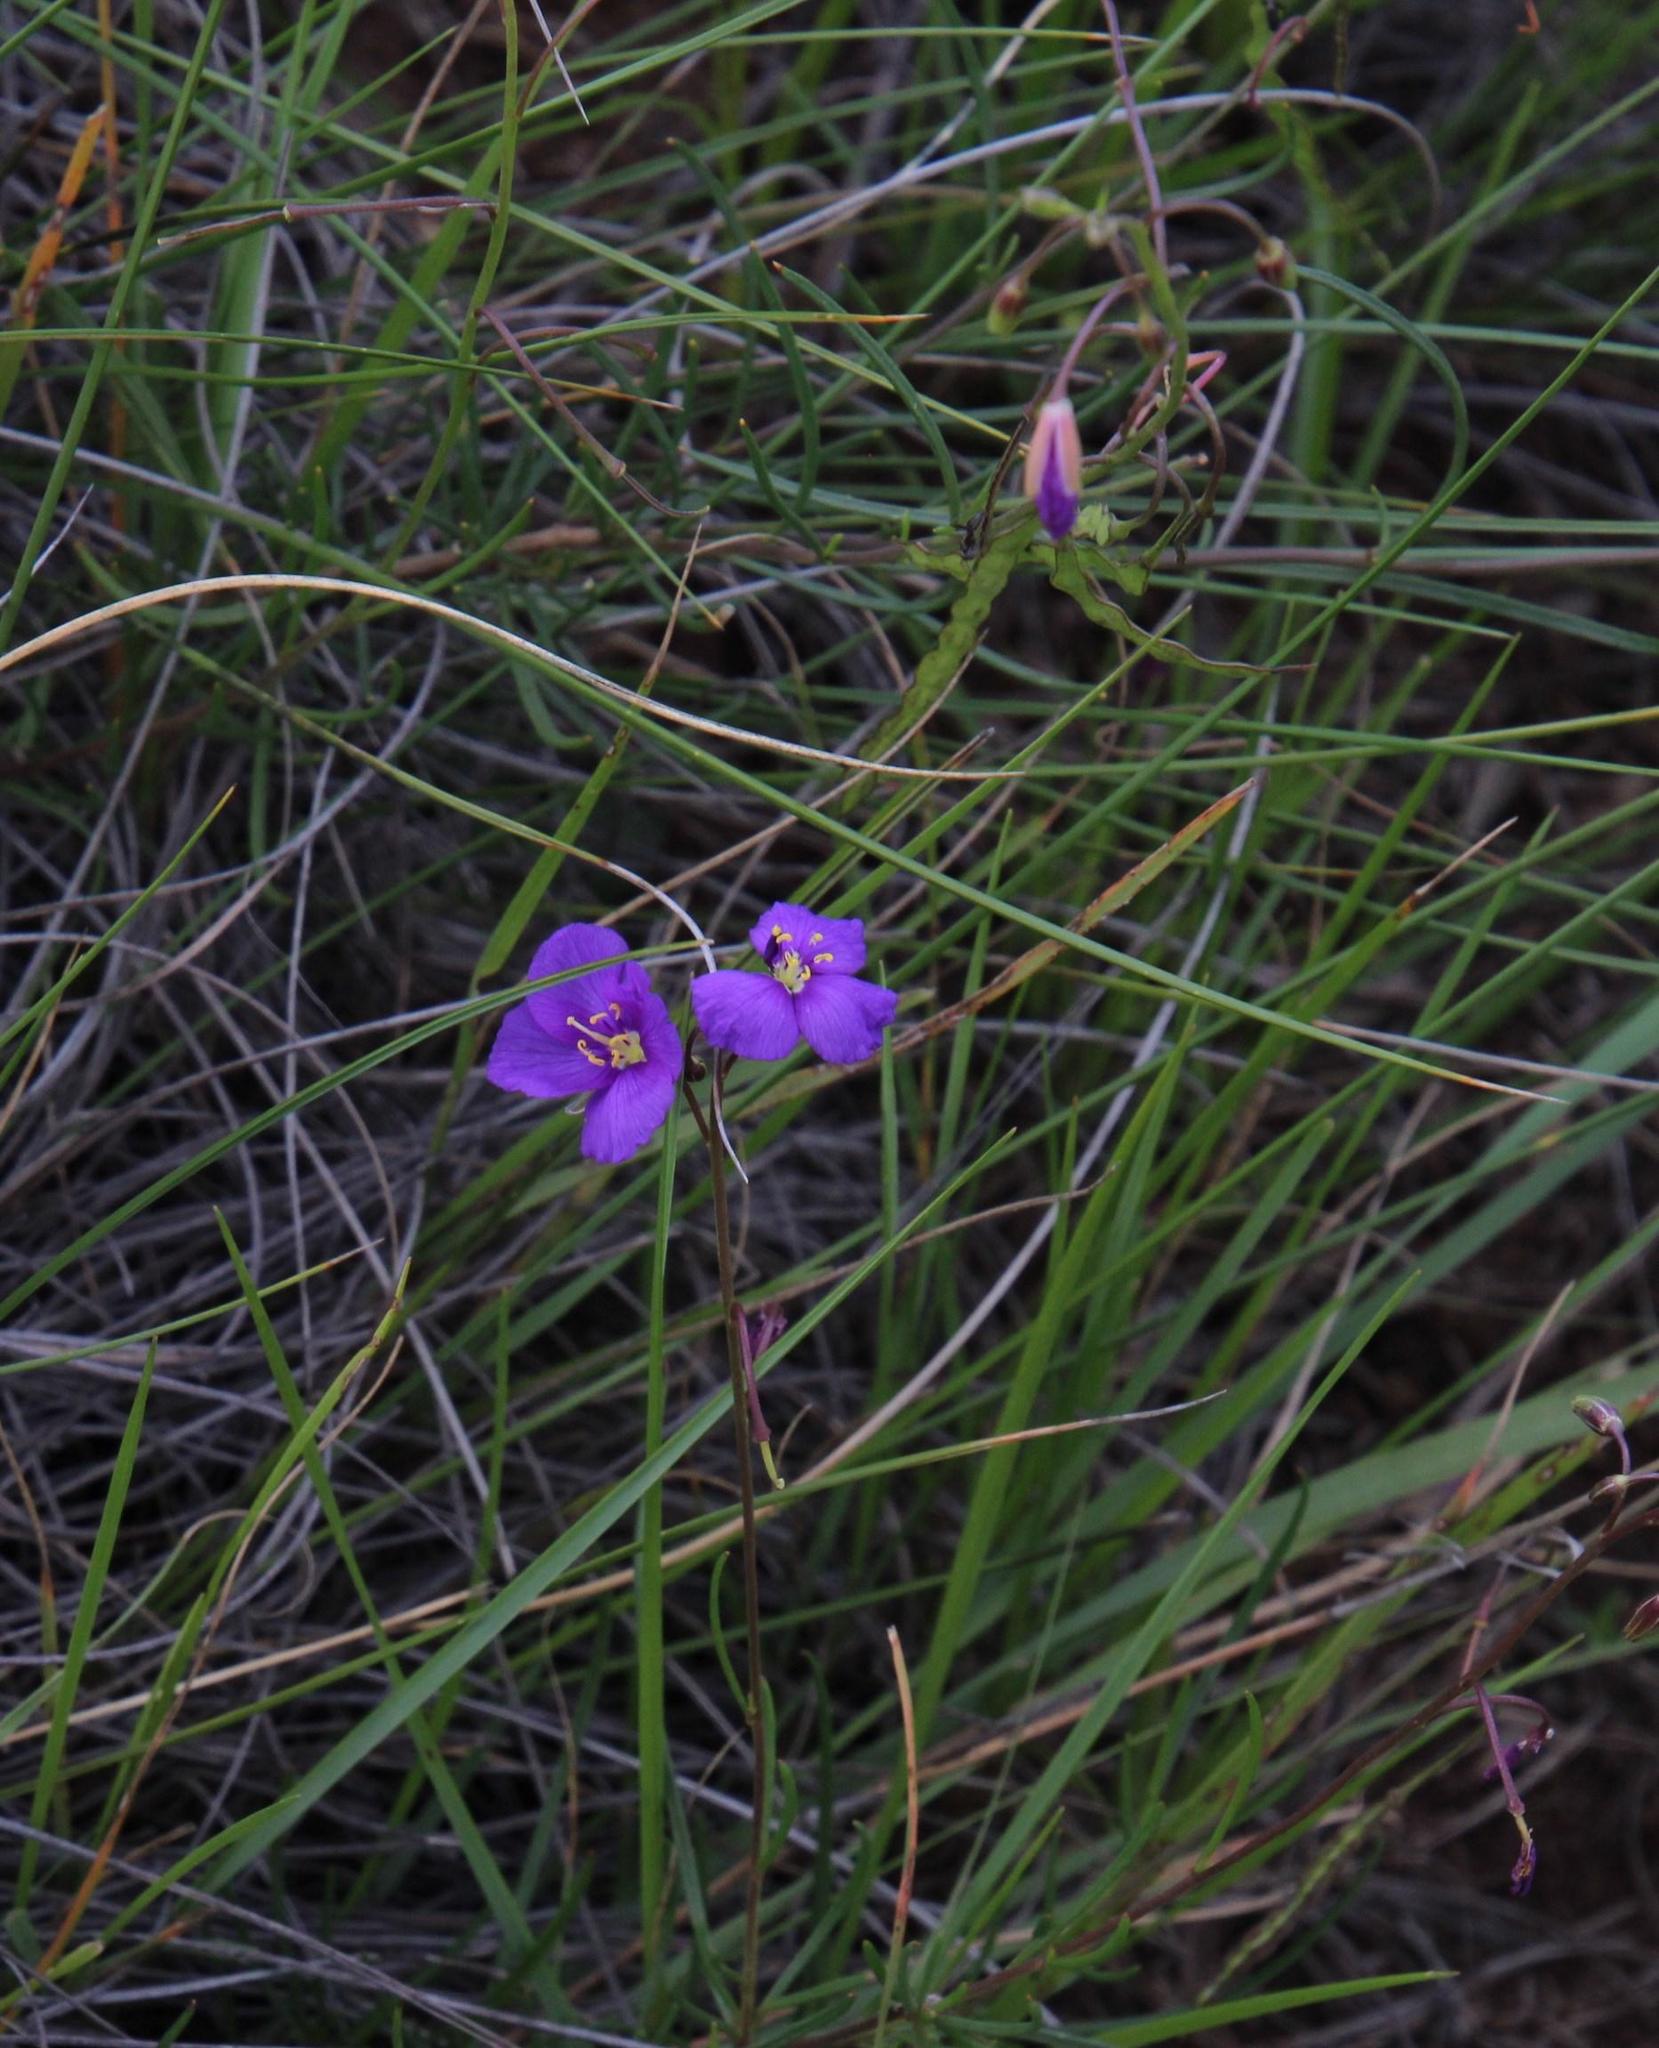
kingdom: Plantae
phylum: Tracheophyta
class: Magnoliopsida
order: Brassicales
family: Brassicaceae
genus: Heliophila
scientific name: Heliophila suavissima
